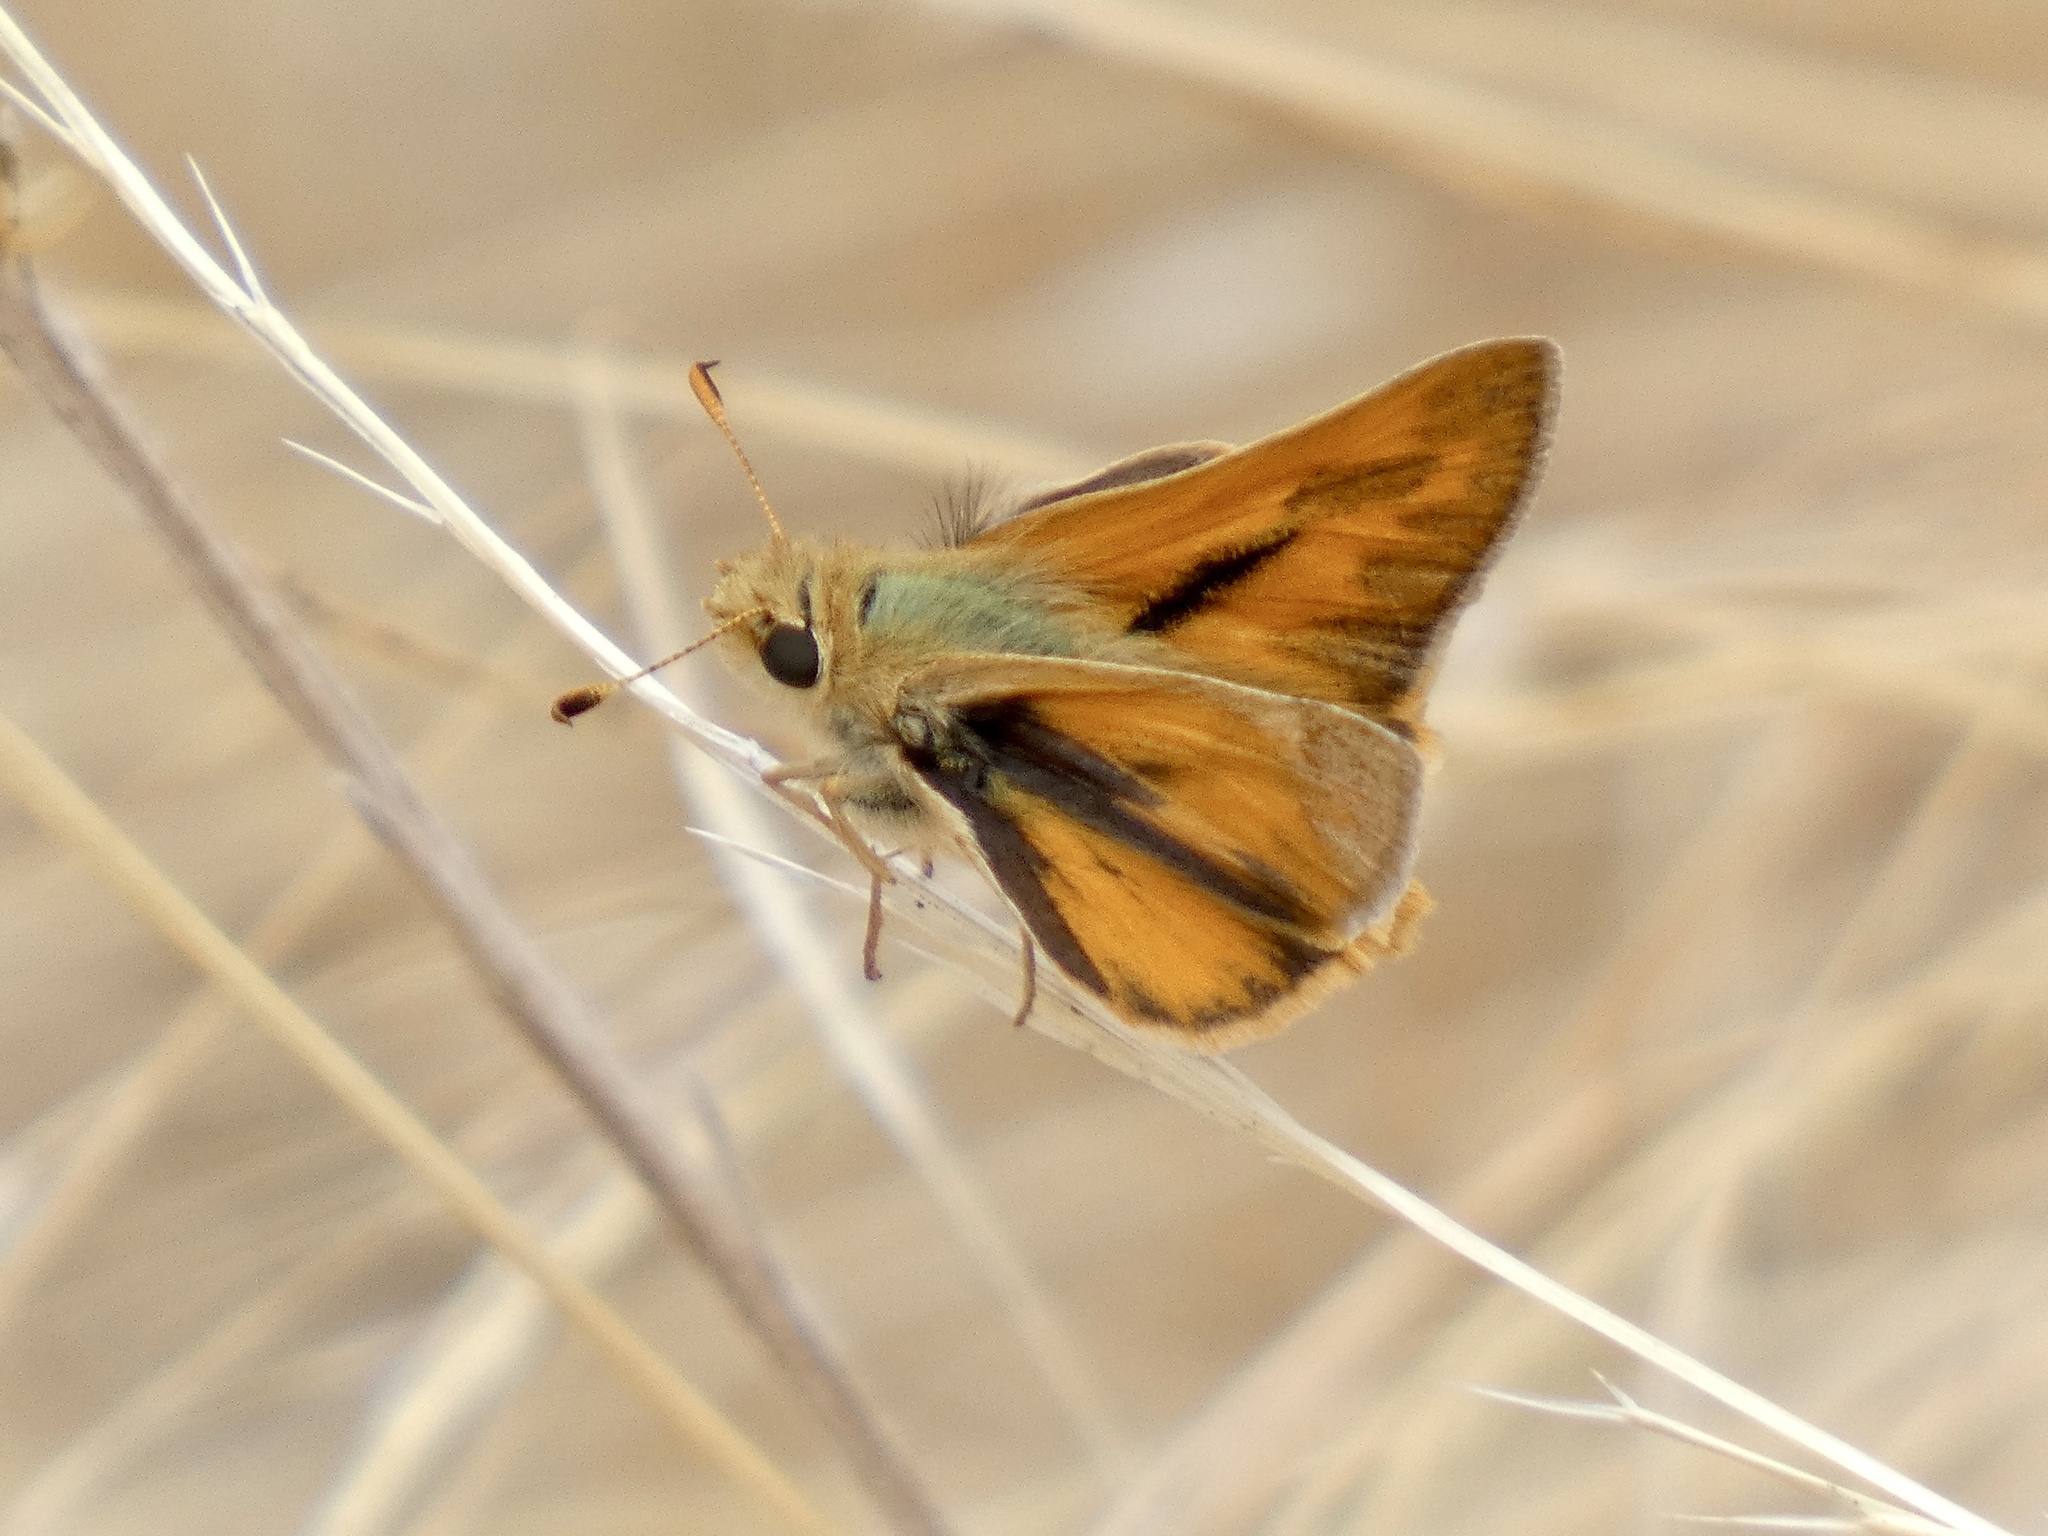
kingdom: Animalia
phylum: Arthropoda
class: Insecta
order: Lepidoptera
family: Hesperiidae
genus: Ochlodes
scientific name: Ochlodes sylvanoides
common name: Woodland skipper
